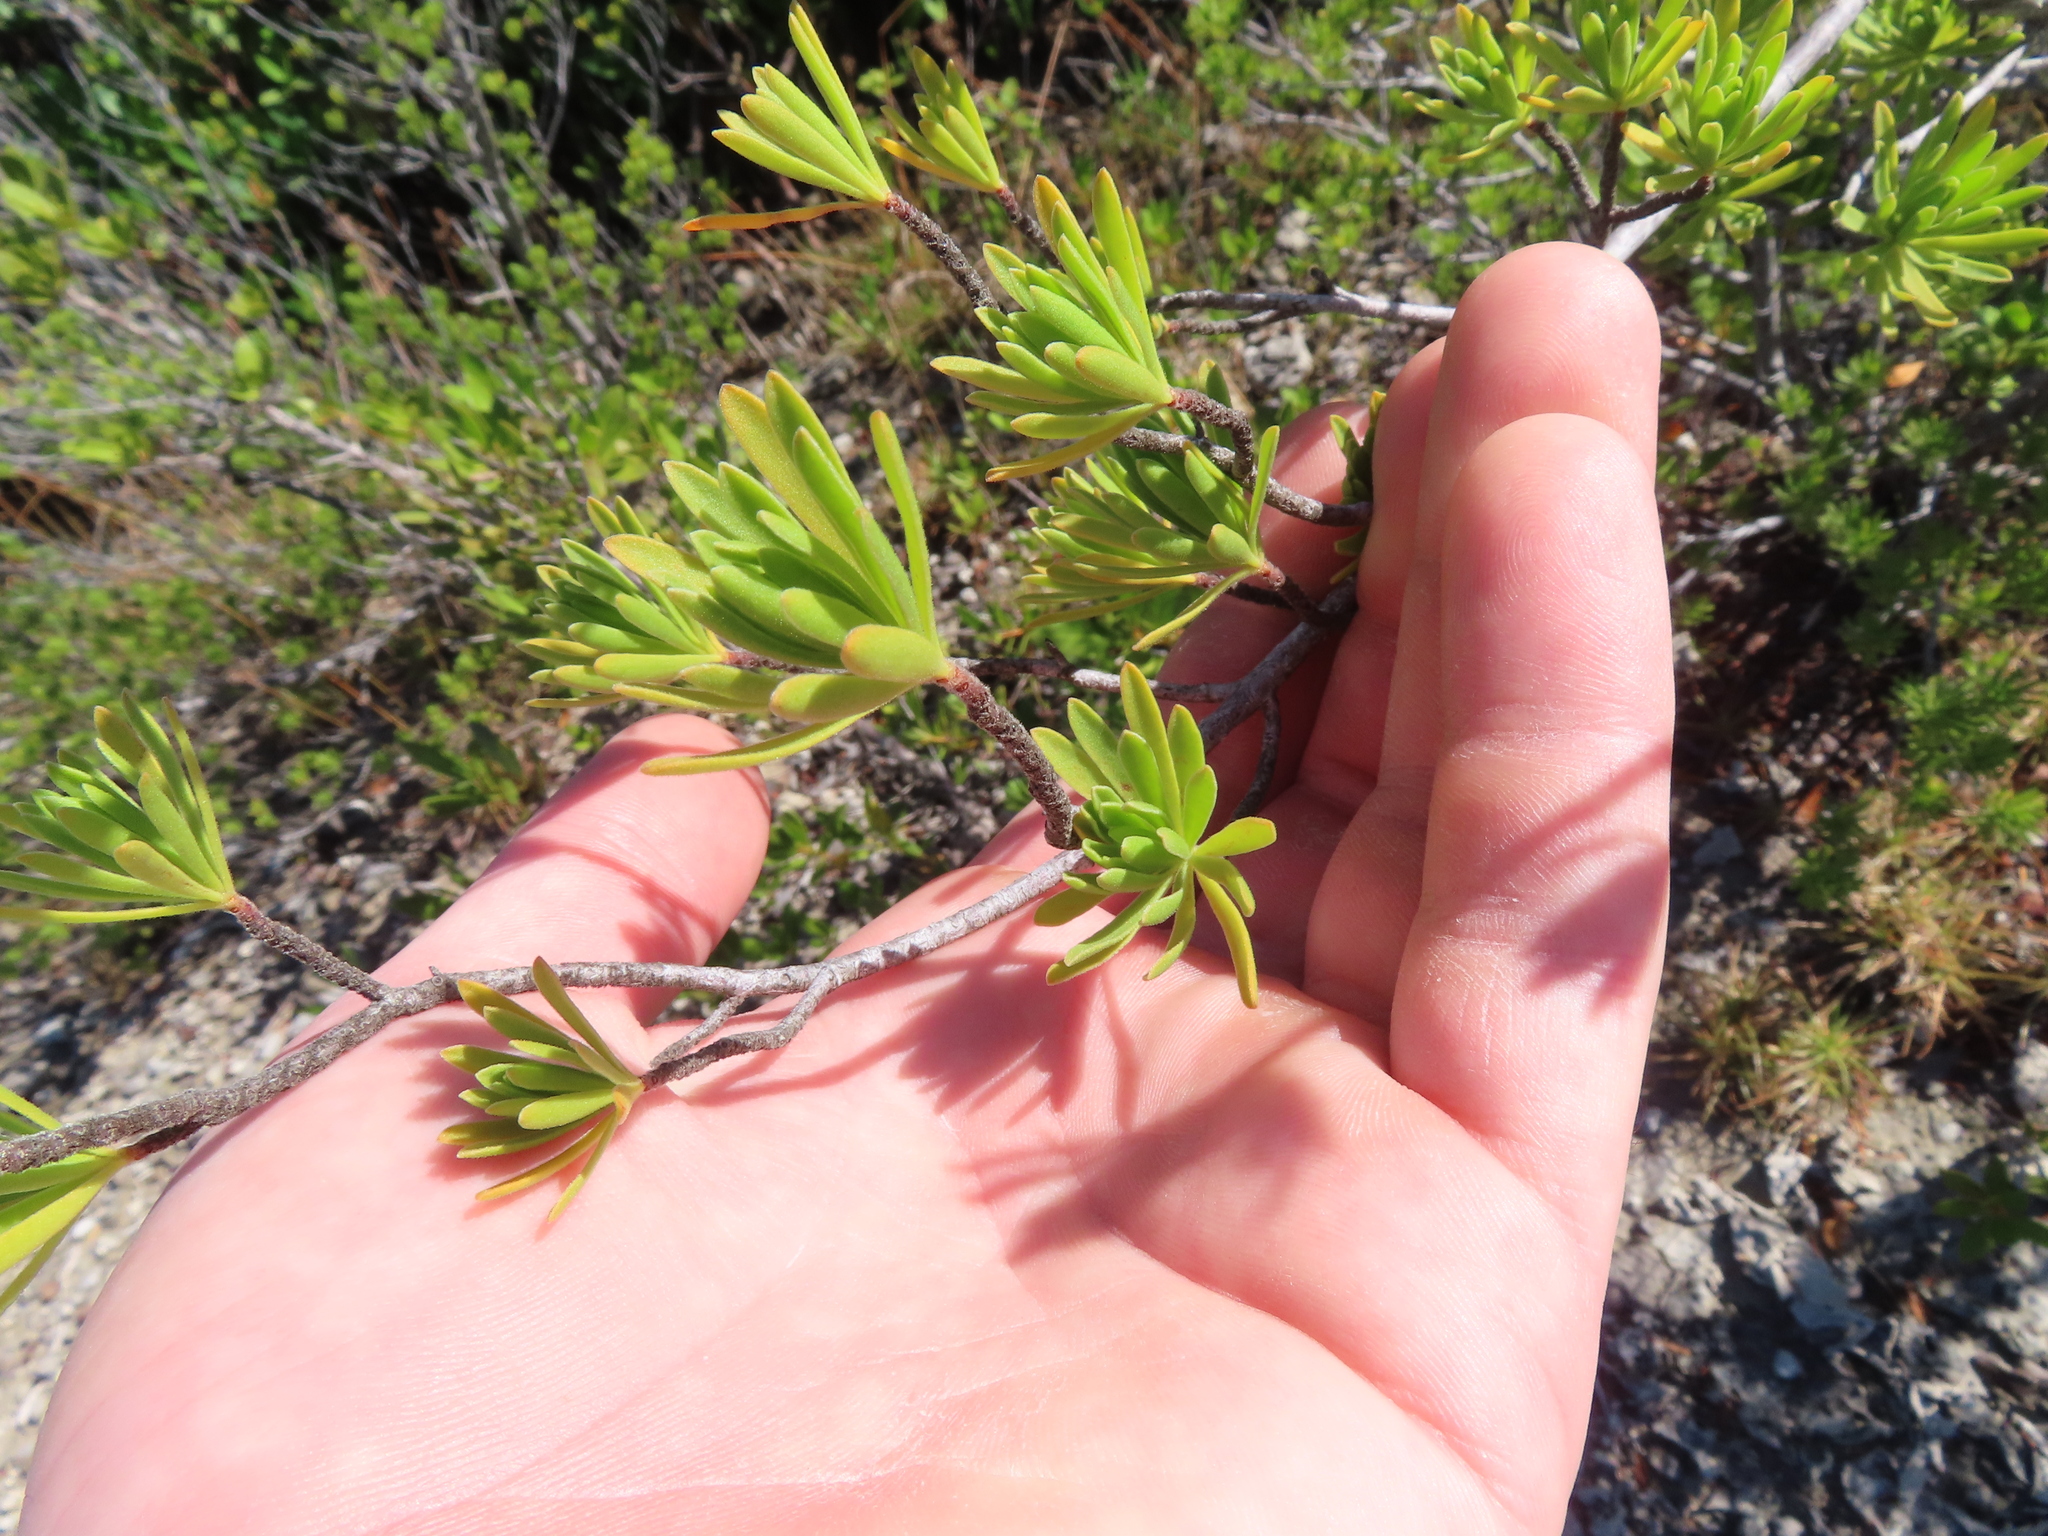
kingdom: Plantae
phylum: Tracheophyta
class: Magnoliopsida
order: Fabales
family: Surianaceae
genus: Suriana
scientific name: Suriana maritima
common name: Bay-cedar
